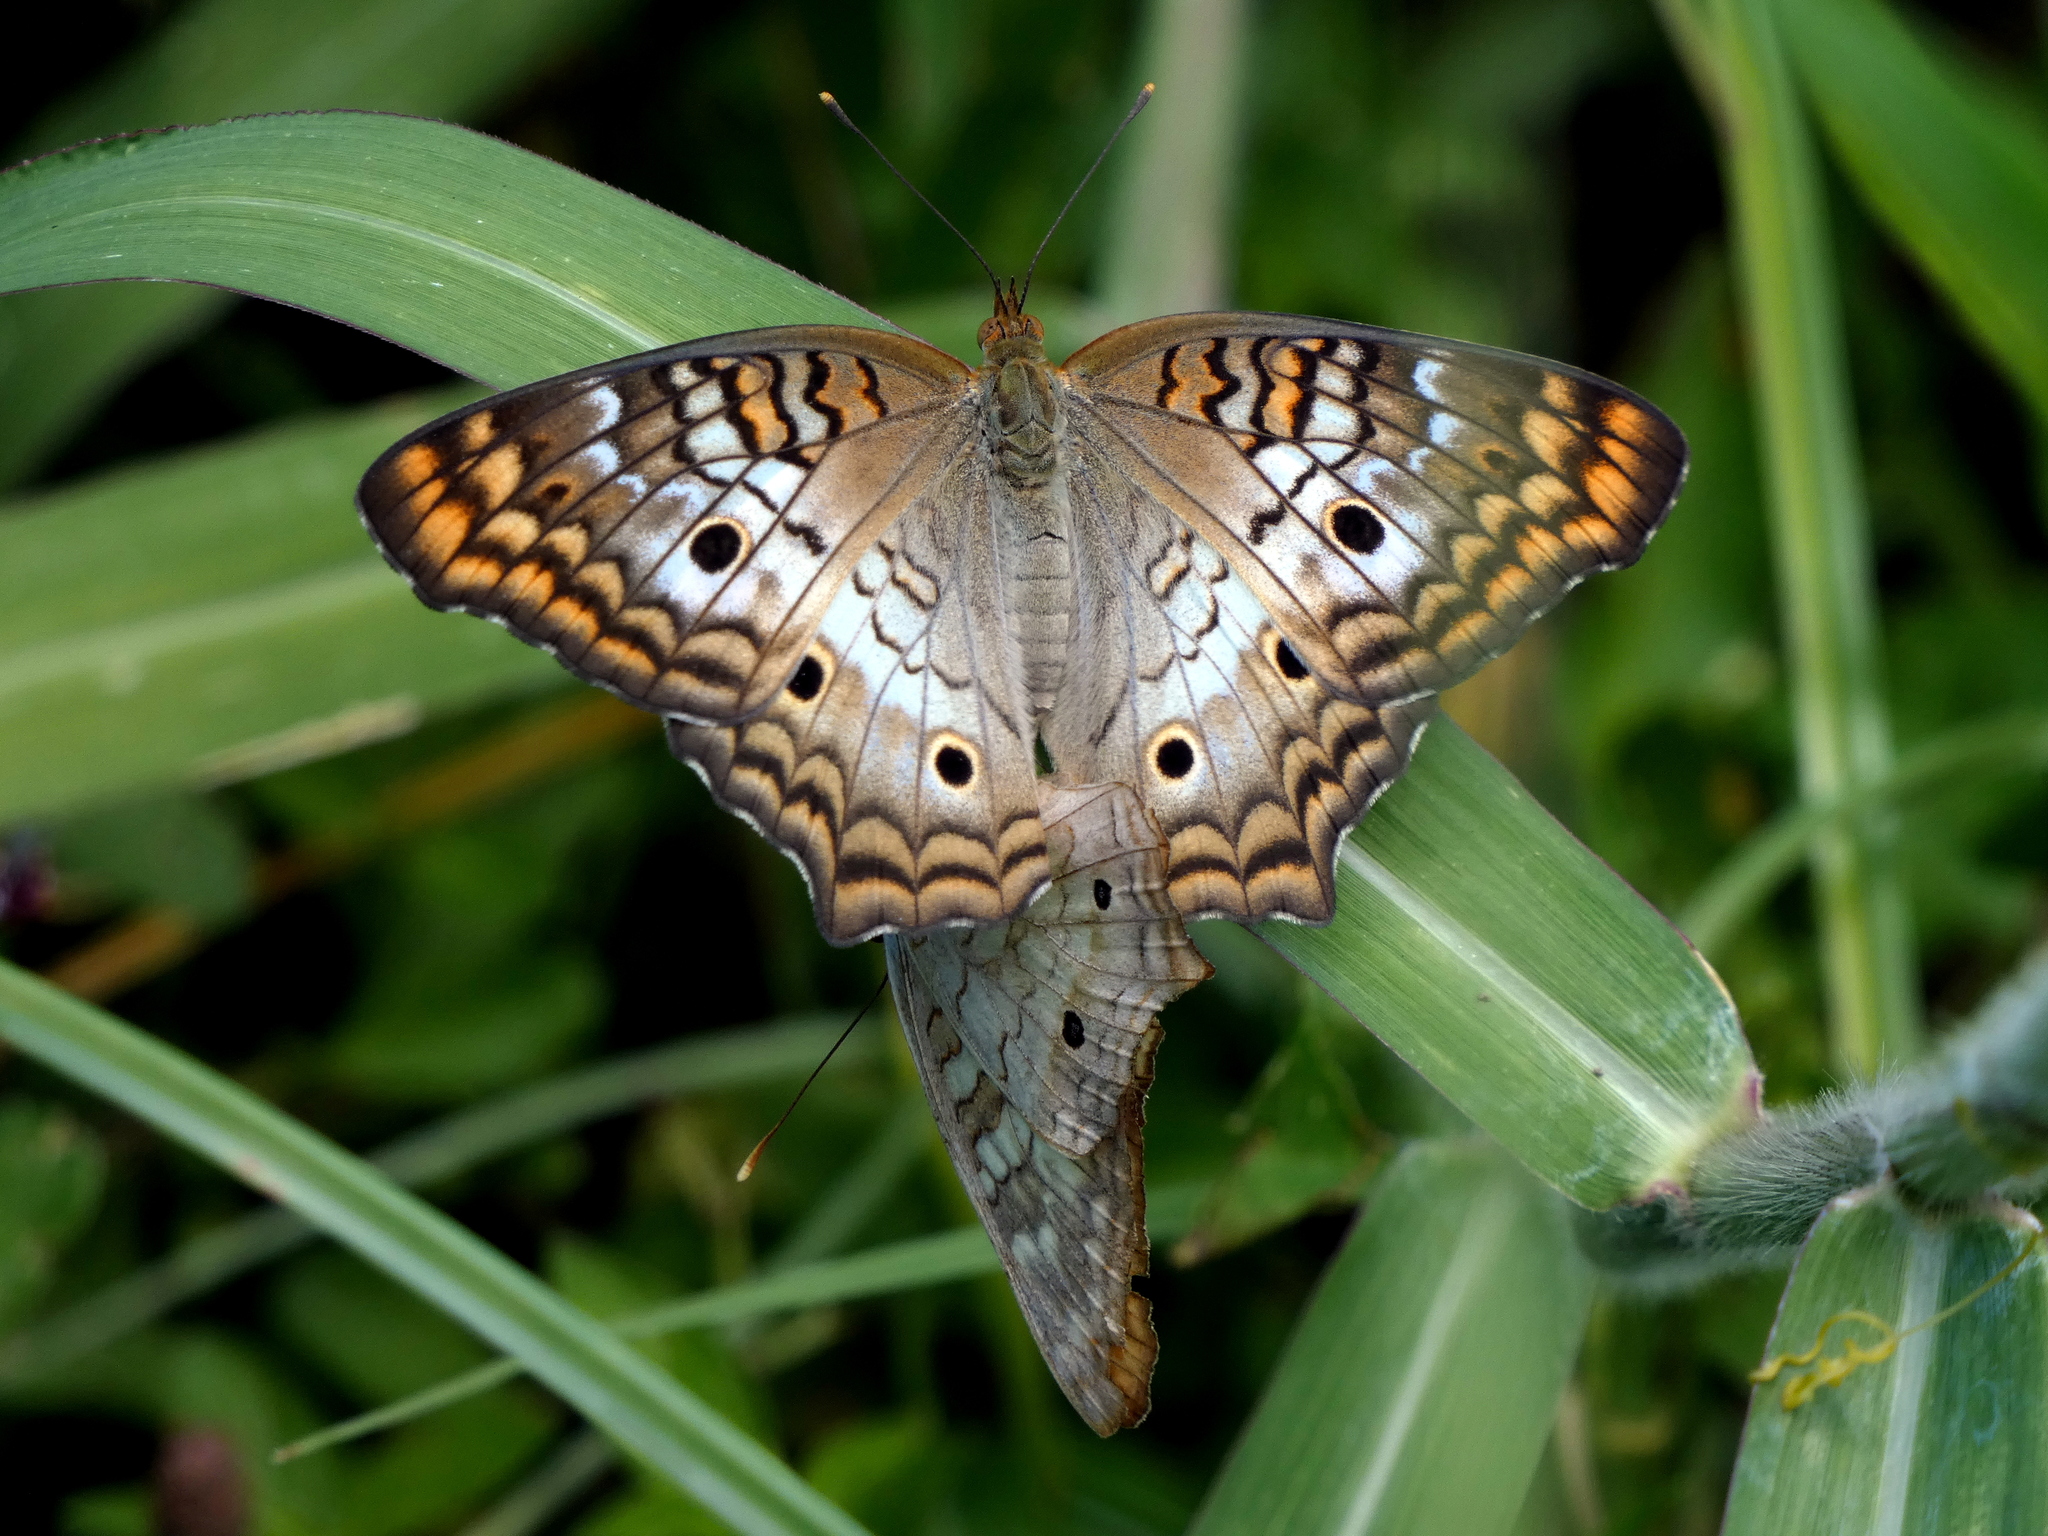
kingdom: Animalia
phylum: Arthropoda
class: Insecta
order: Lepidoptera
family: Nymphalidae
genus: Anartia
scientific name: Anartia jatrophae
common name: White peacock
